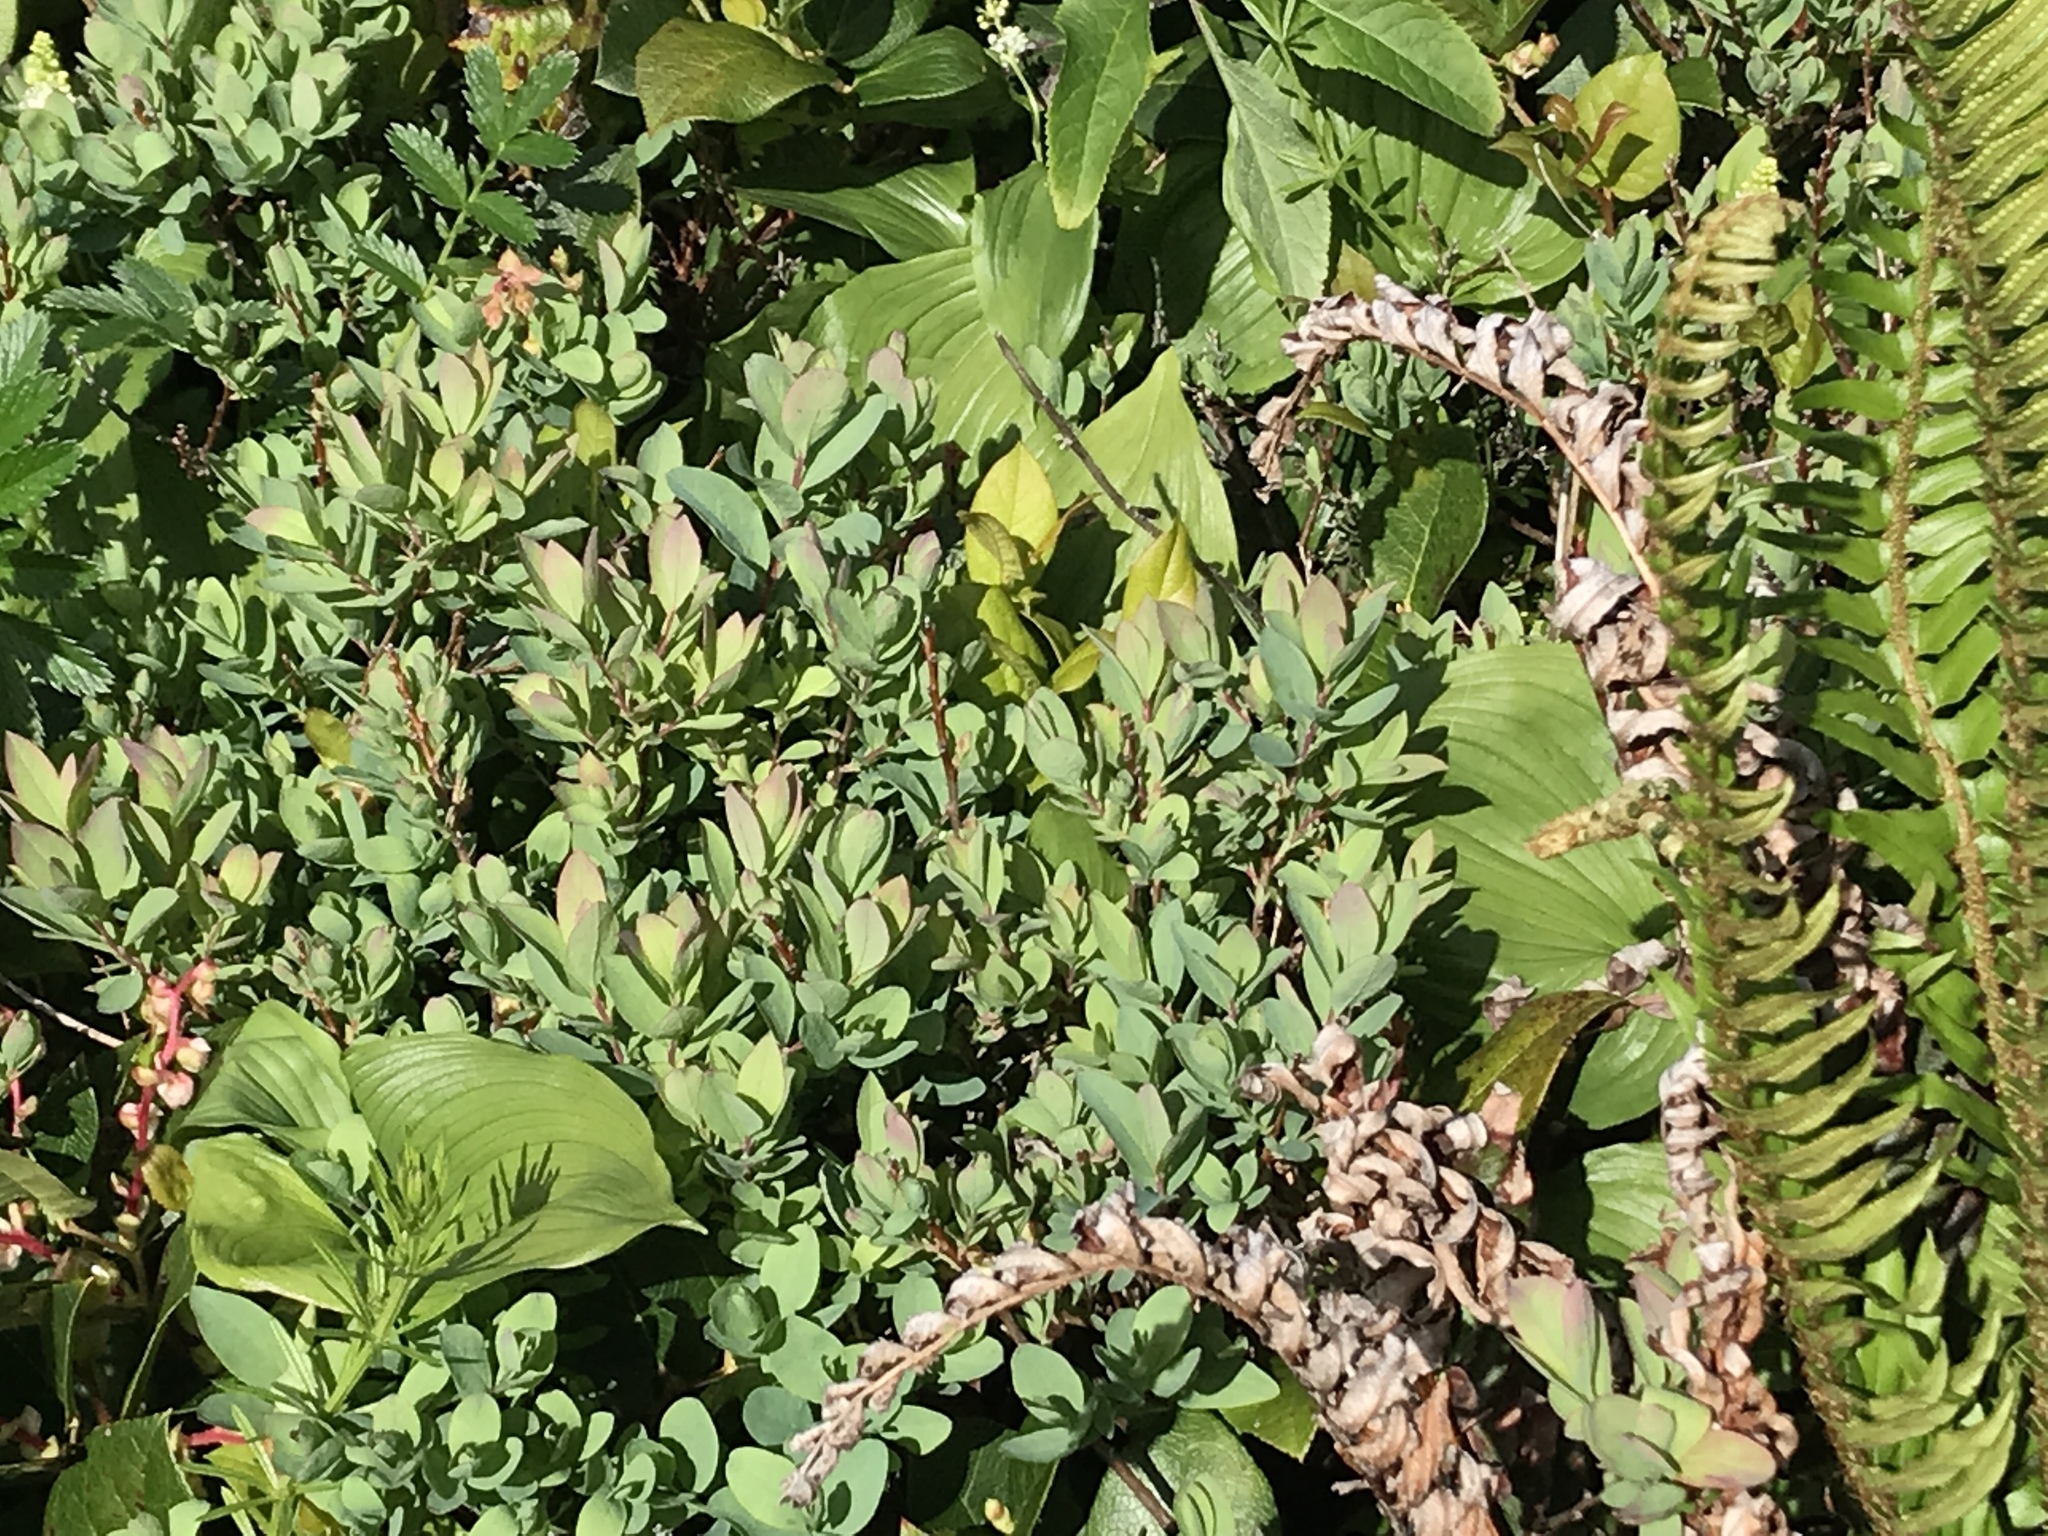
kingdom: Plantae
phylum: Tracheophyta
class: Magnoliopsida
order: Ericales
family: Ericaceae
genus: Vaccinium
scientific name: Vaccinium uliginosum
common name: Bog bilberry
